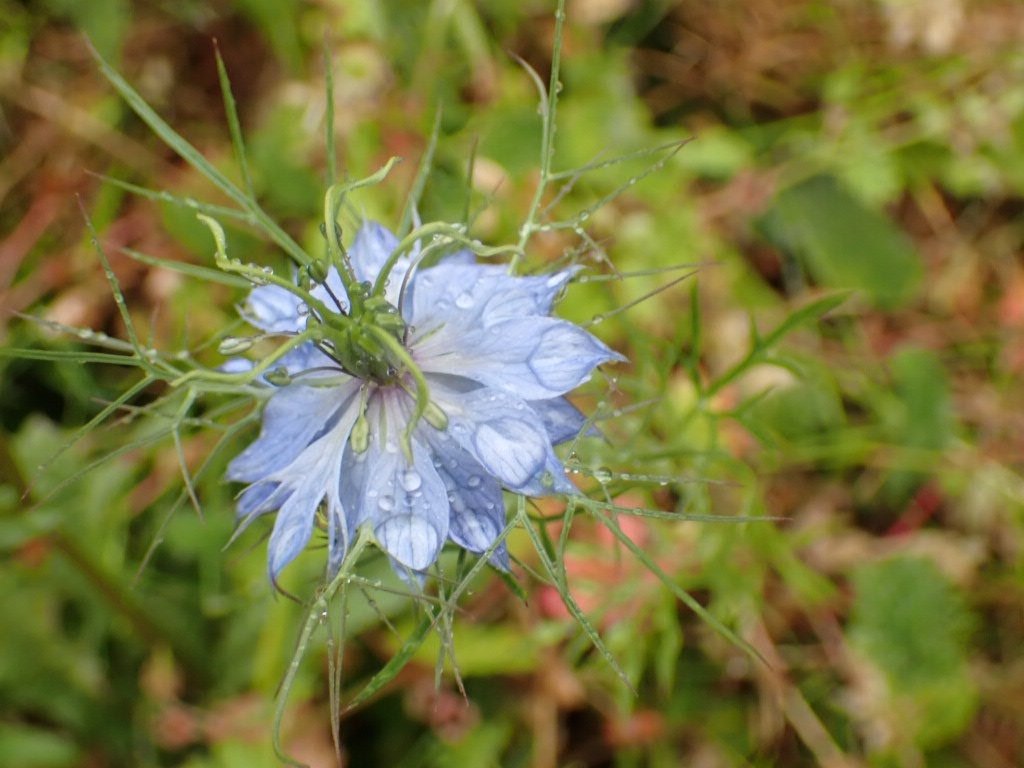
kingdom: Plantae
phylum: Tracheophyta
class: Magnoliopsida
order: Ranunculales
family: Ranunculaceae
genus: Nigella
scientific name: Nigella damascena
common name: Love-in-a-mist
